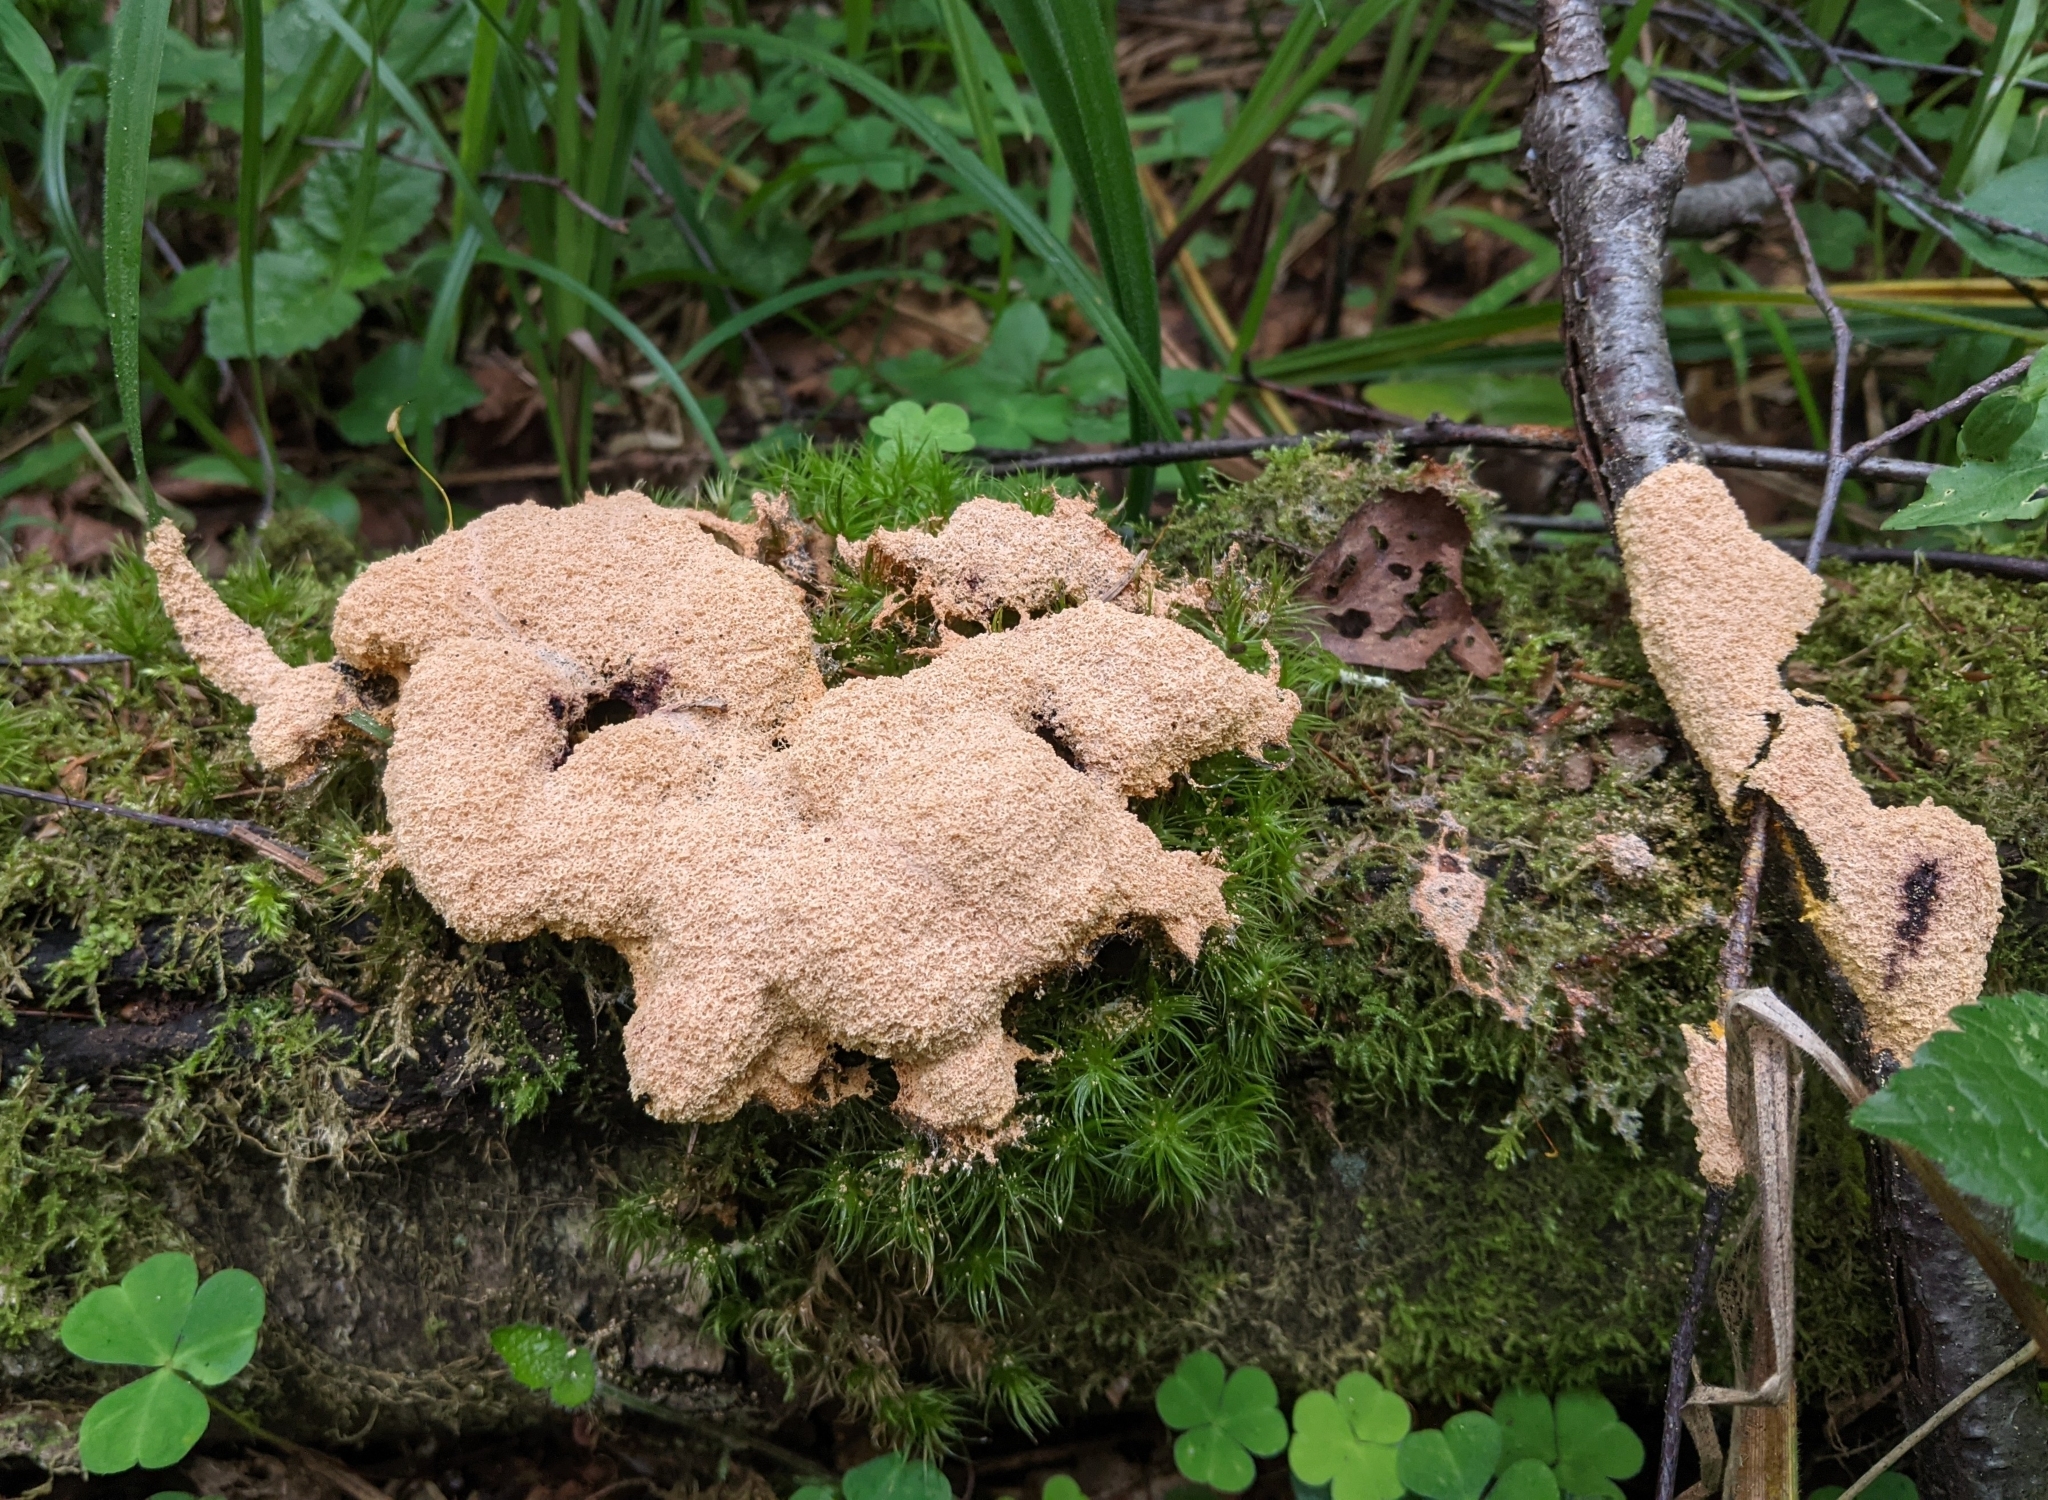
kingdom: Protozoa
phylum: Mycetozoa
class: Myxomycetes
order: Physarales
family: Physaraceae
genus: Fuligo
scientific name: Fuligo septica
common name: Dog vomit slime mold
